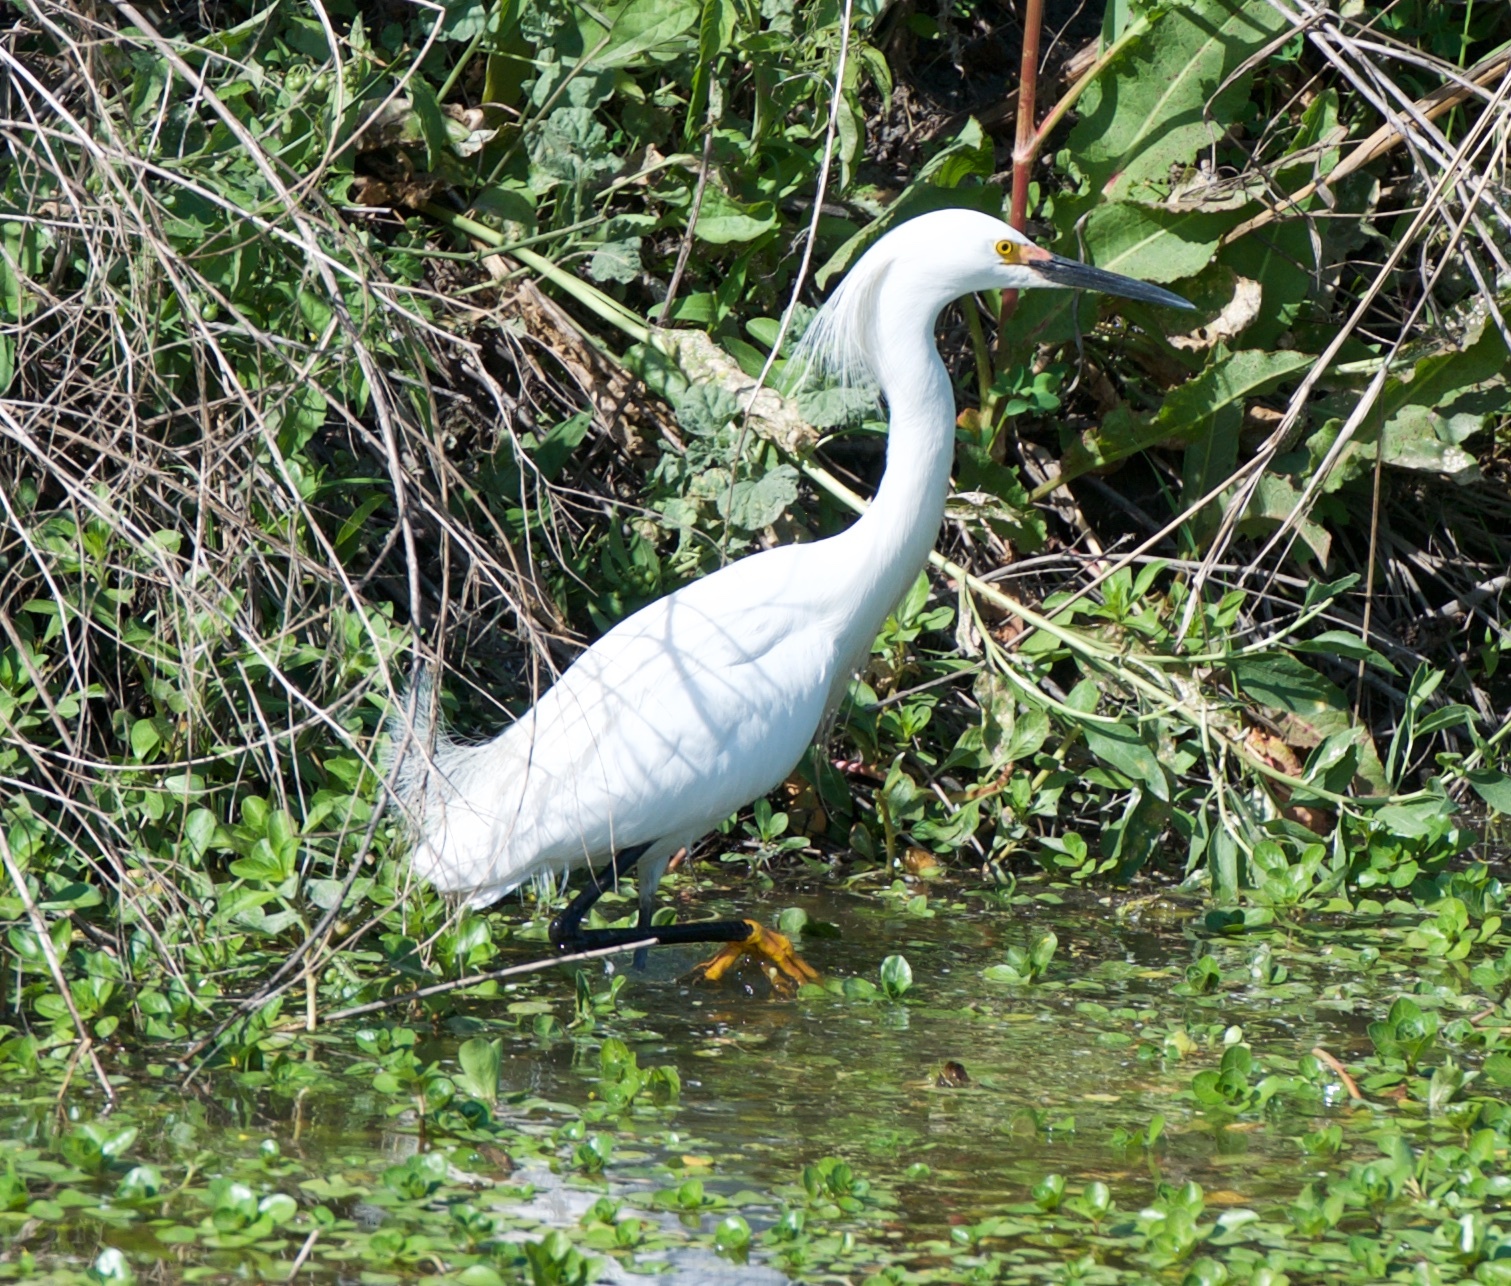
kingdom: Animalia
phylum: Chordata
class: Aves
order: Pelecaniformes
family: Ardeidae
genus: Egretta
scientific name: Egretta thula
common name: Snowy egret
